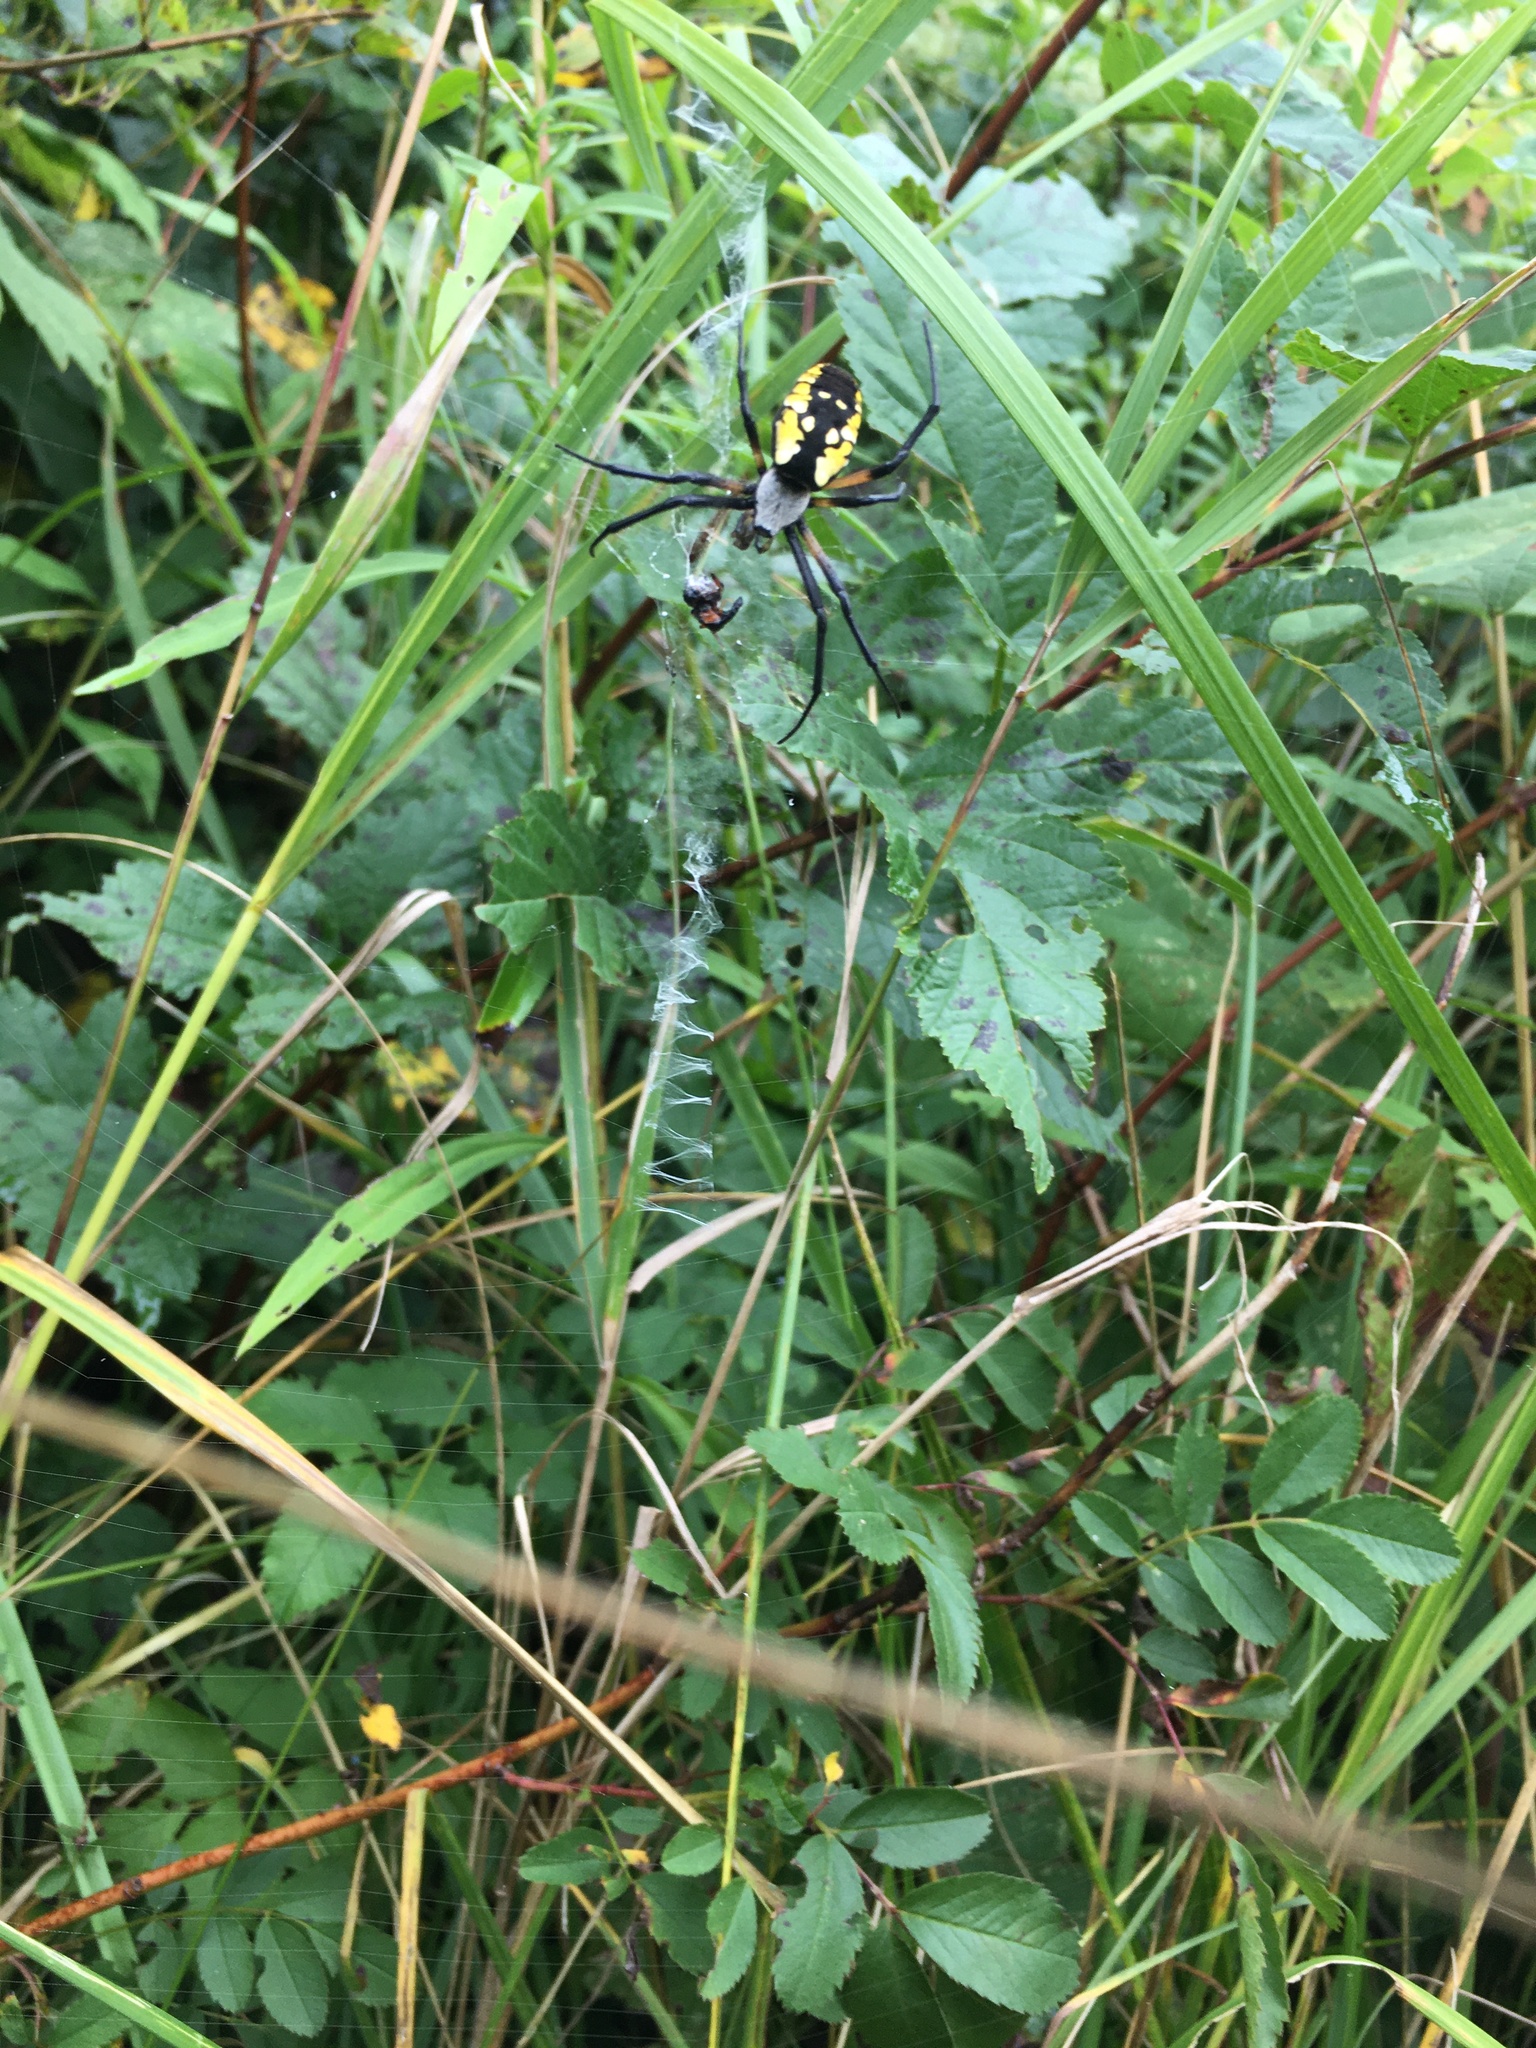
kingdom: Animalia
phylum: Arthropoda
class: Arachnida
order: Araneae
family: Araneidae
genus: Argiope
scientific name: Argiope aurantia
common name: Orb weavers
